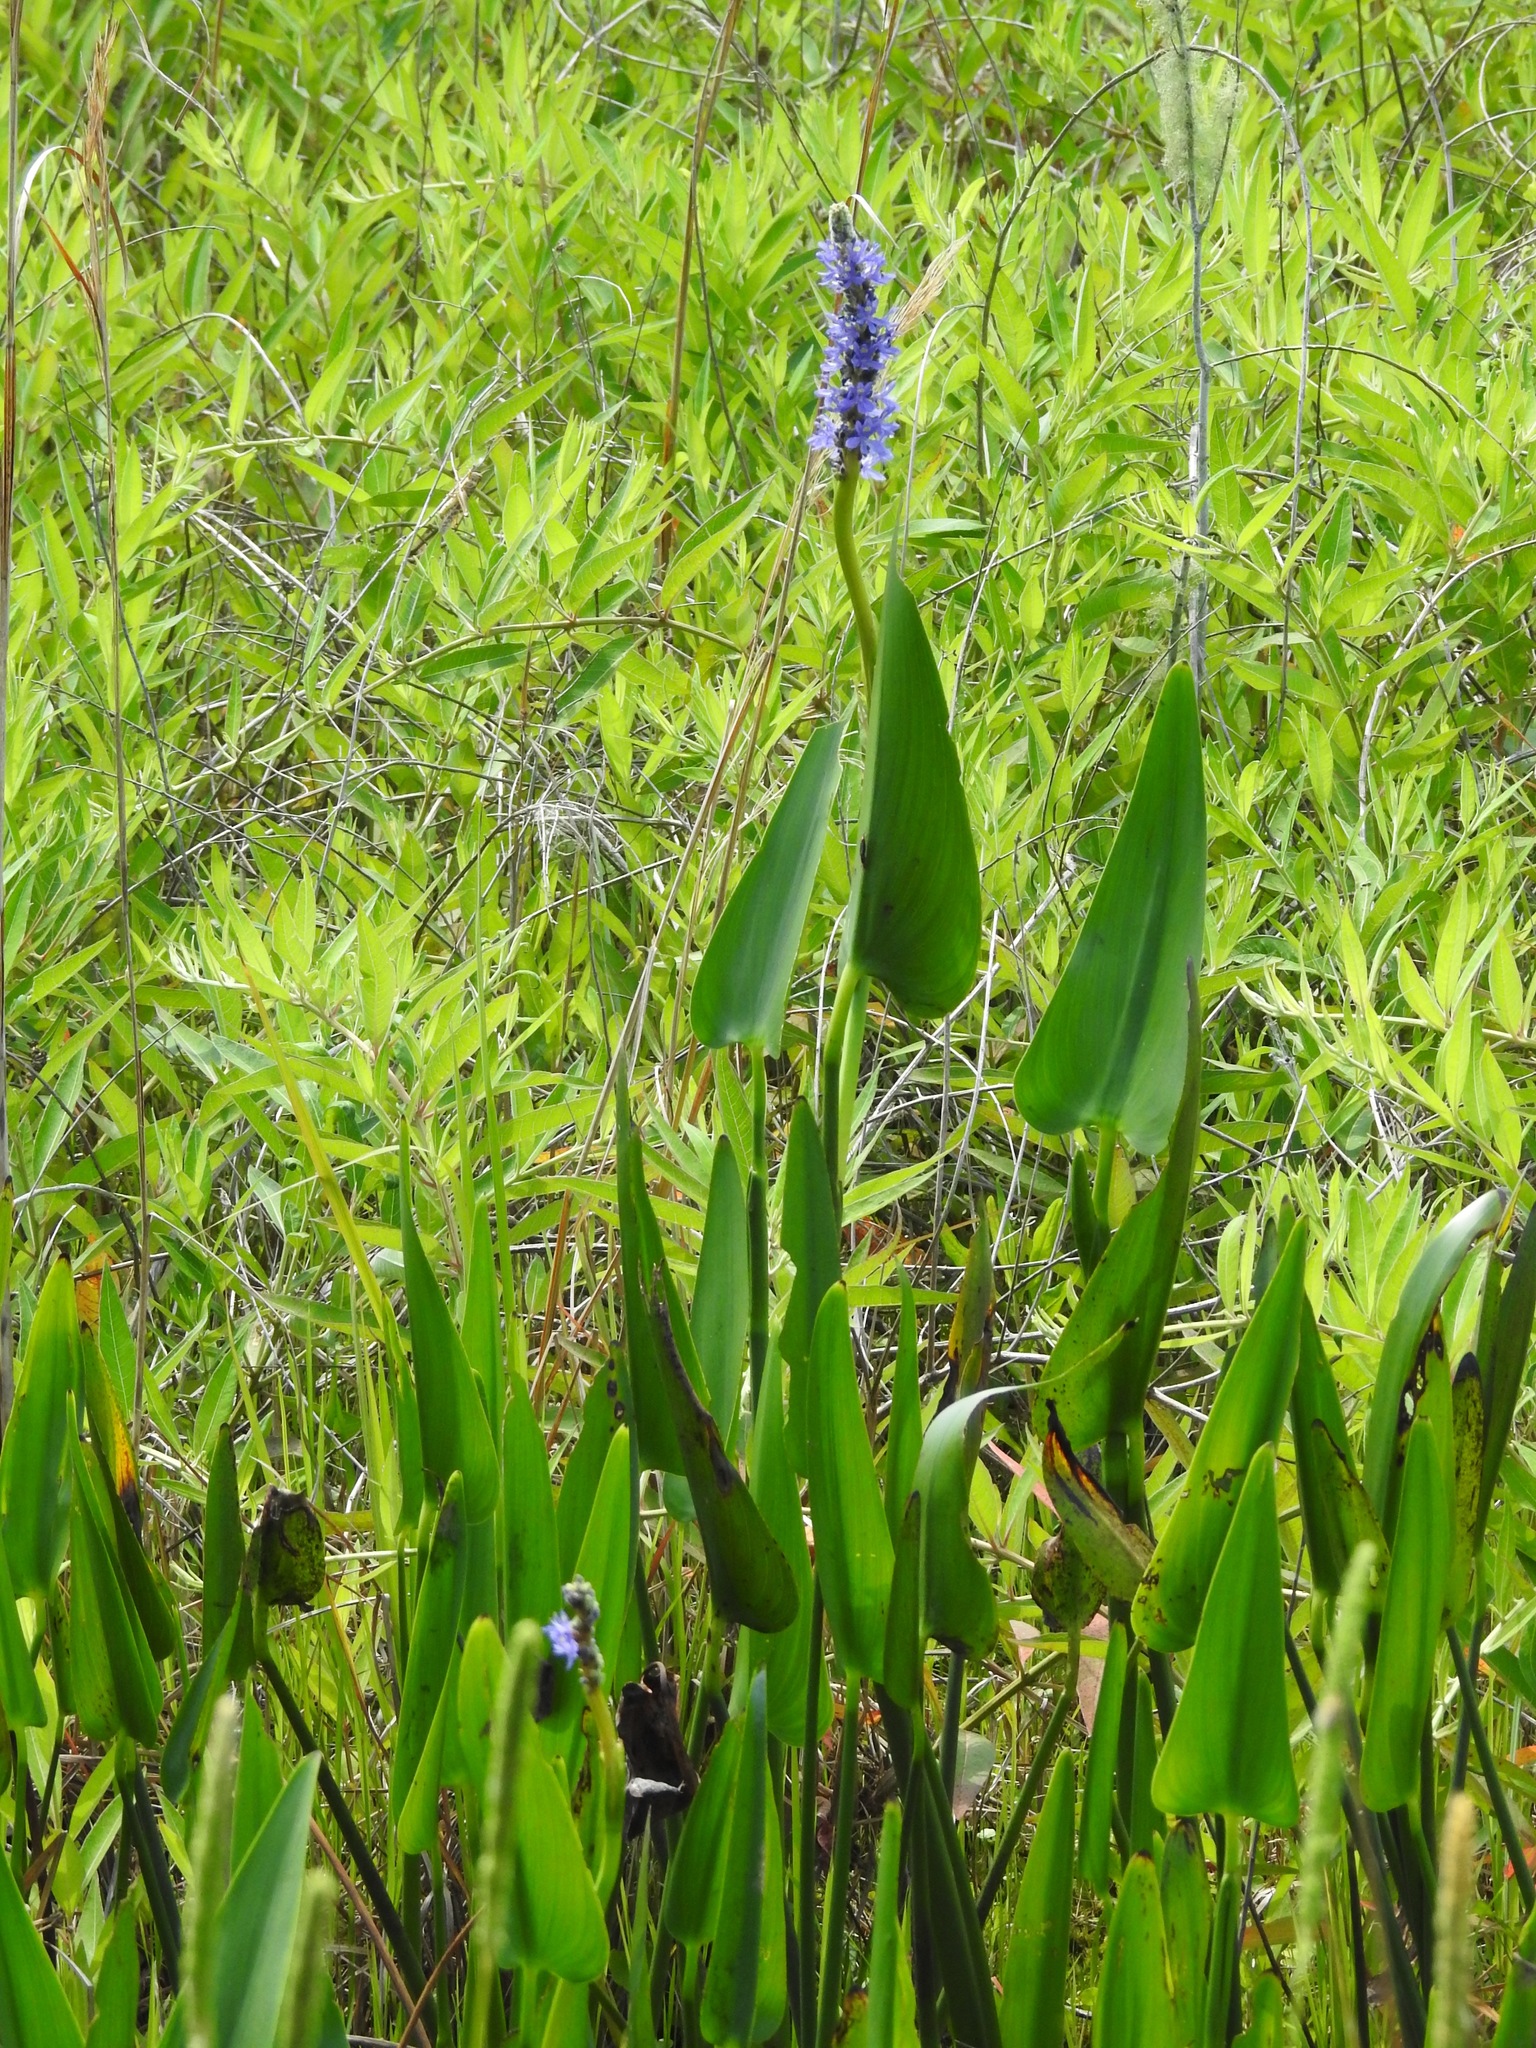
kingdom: Plantae
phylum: Tracheophyta
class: Liliopsida
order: Commelinales
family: Pontederiaceae
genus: Pontederia
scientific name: Pontederia cordata
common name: Pickerelweed
